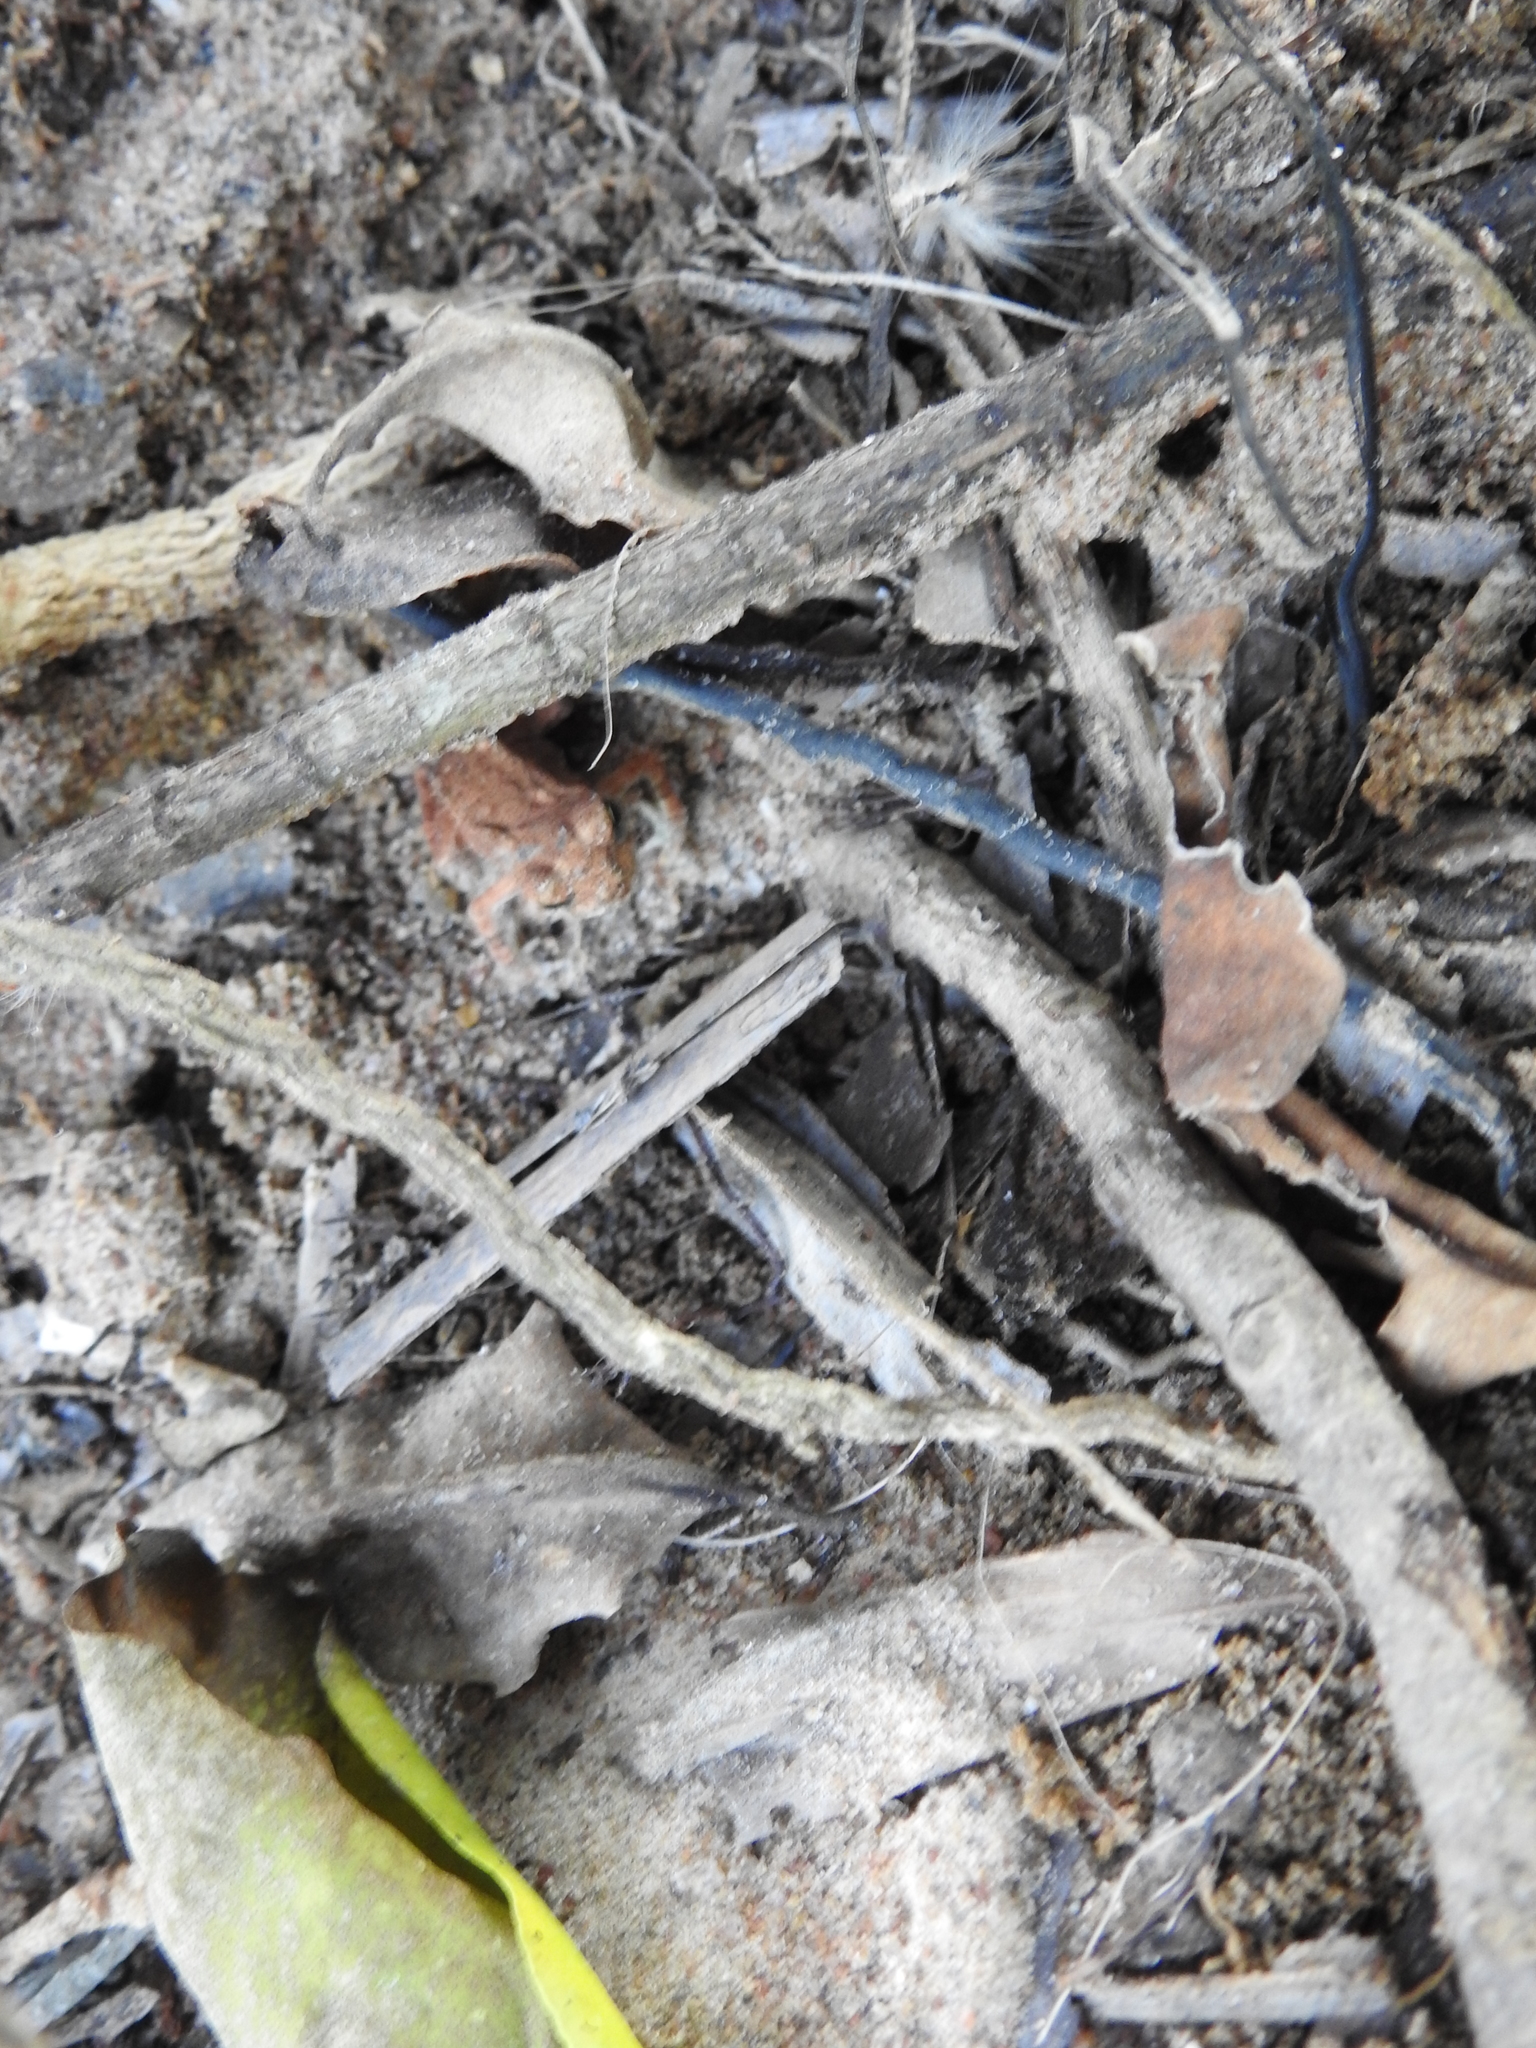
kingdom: Animalia
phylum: Chordata
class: Amphibia
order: Anura
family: Bufonidae
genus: Duttaphrynus
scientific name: Duttaphrynus melanostictus
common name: Common sunda toad
